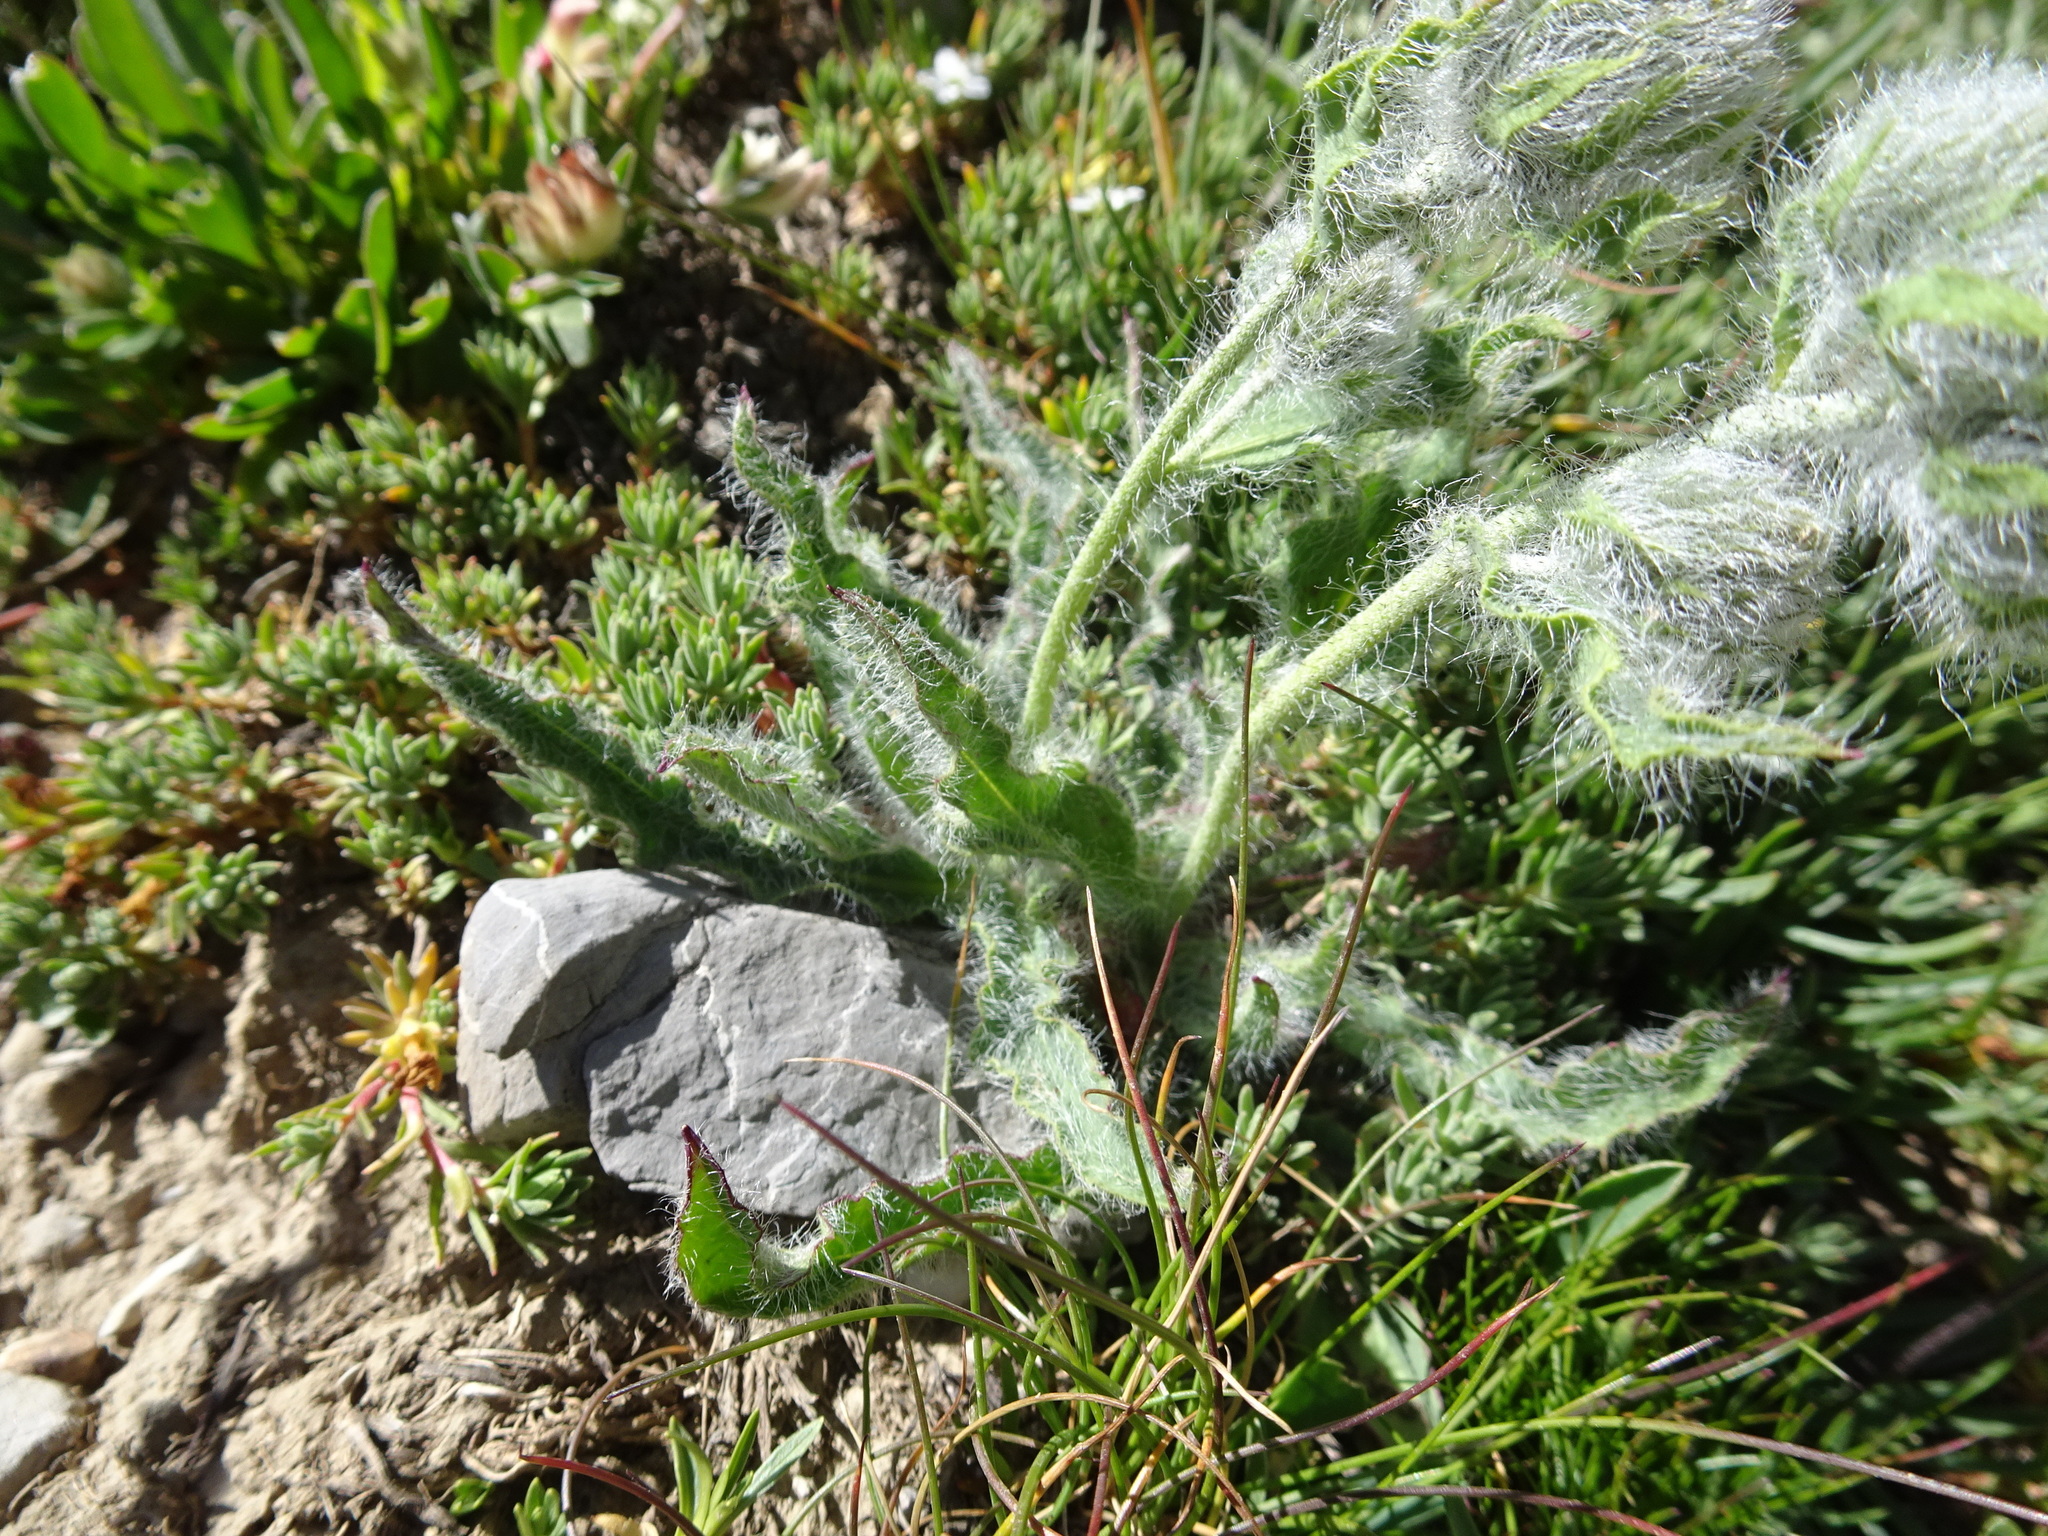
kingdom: Plantae
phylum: Tracheophyta
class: Magnoliopsida
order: Asterales
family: Asteraceae
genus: Hieracium
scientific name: Hieracium villosum
